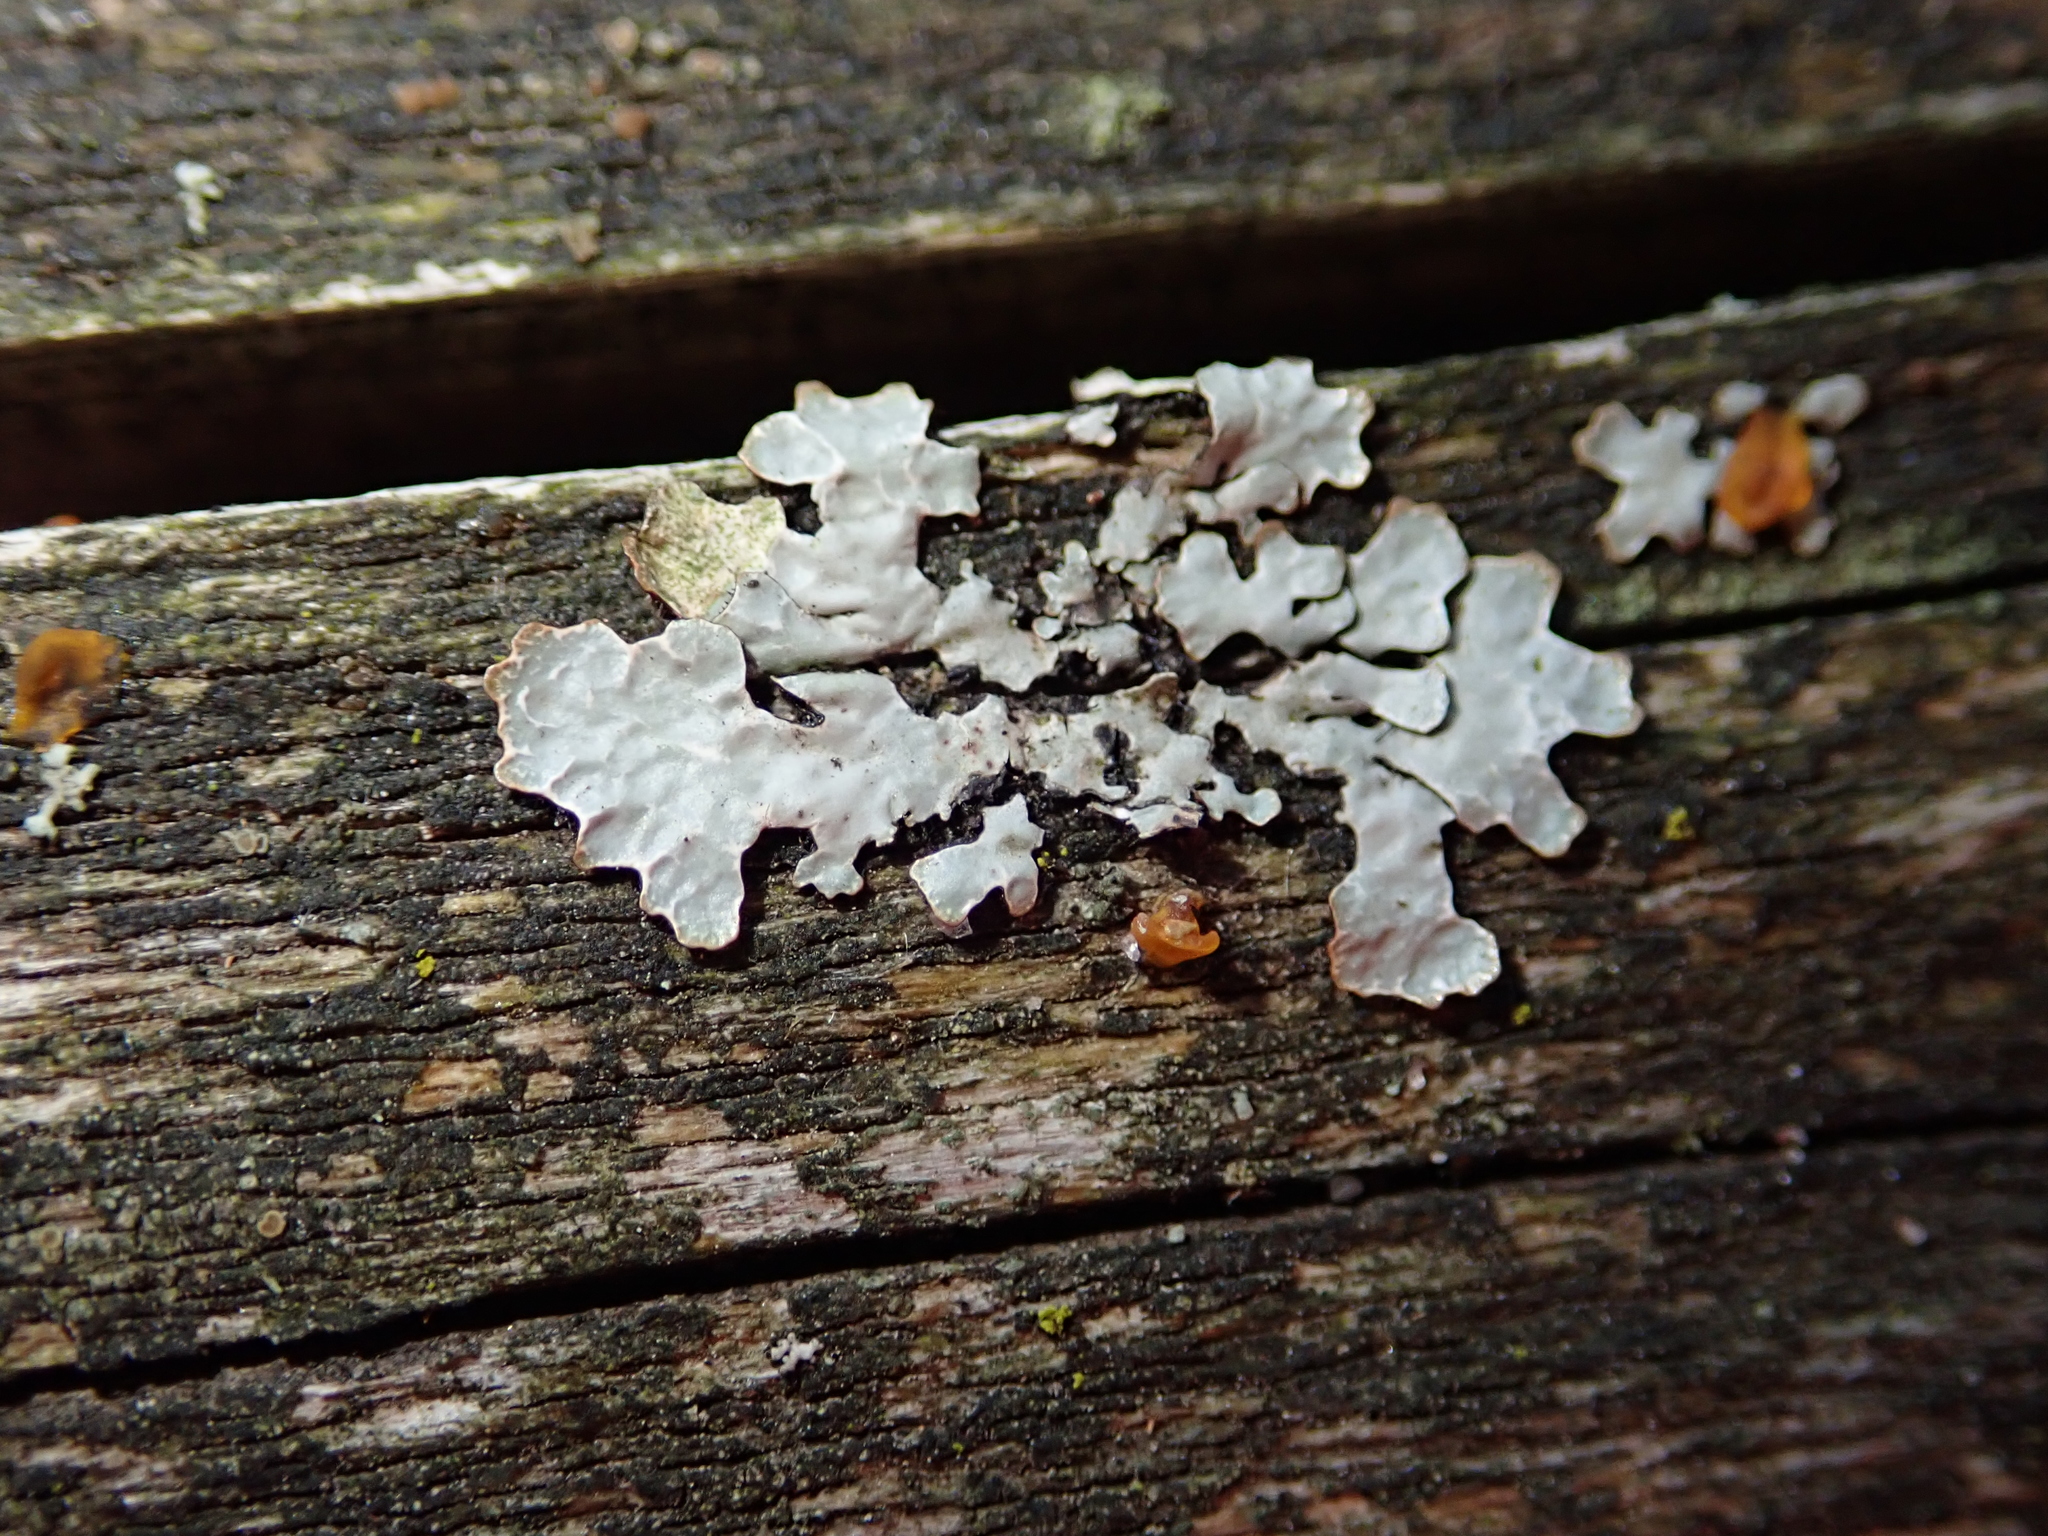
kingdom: Fungi
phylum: Ascomycota
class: Lecanoromycetes
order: Lecanorales
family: Parmeliaceae
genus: Parmelia
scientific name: Parmelia sulcata
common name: Netted shield lichen
